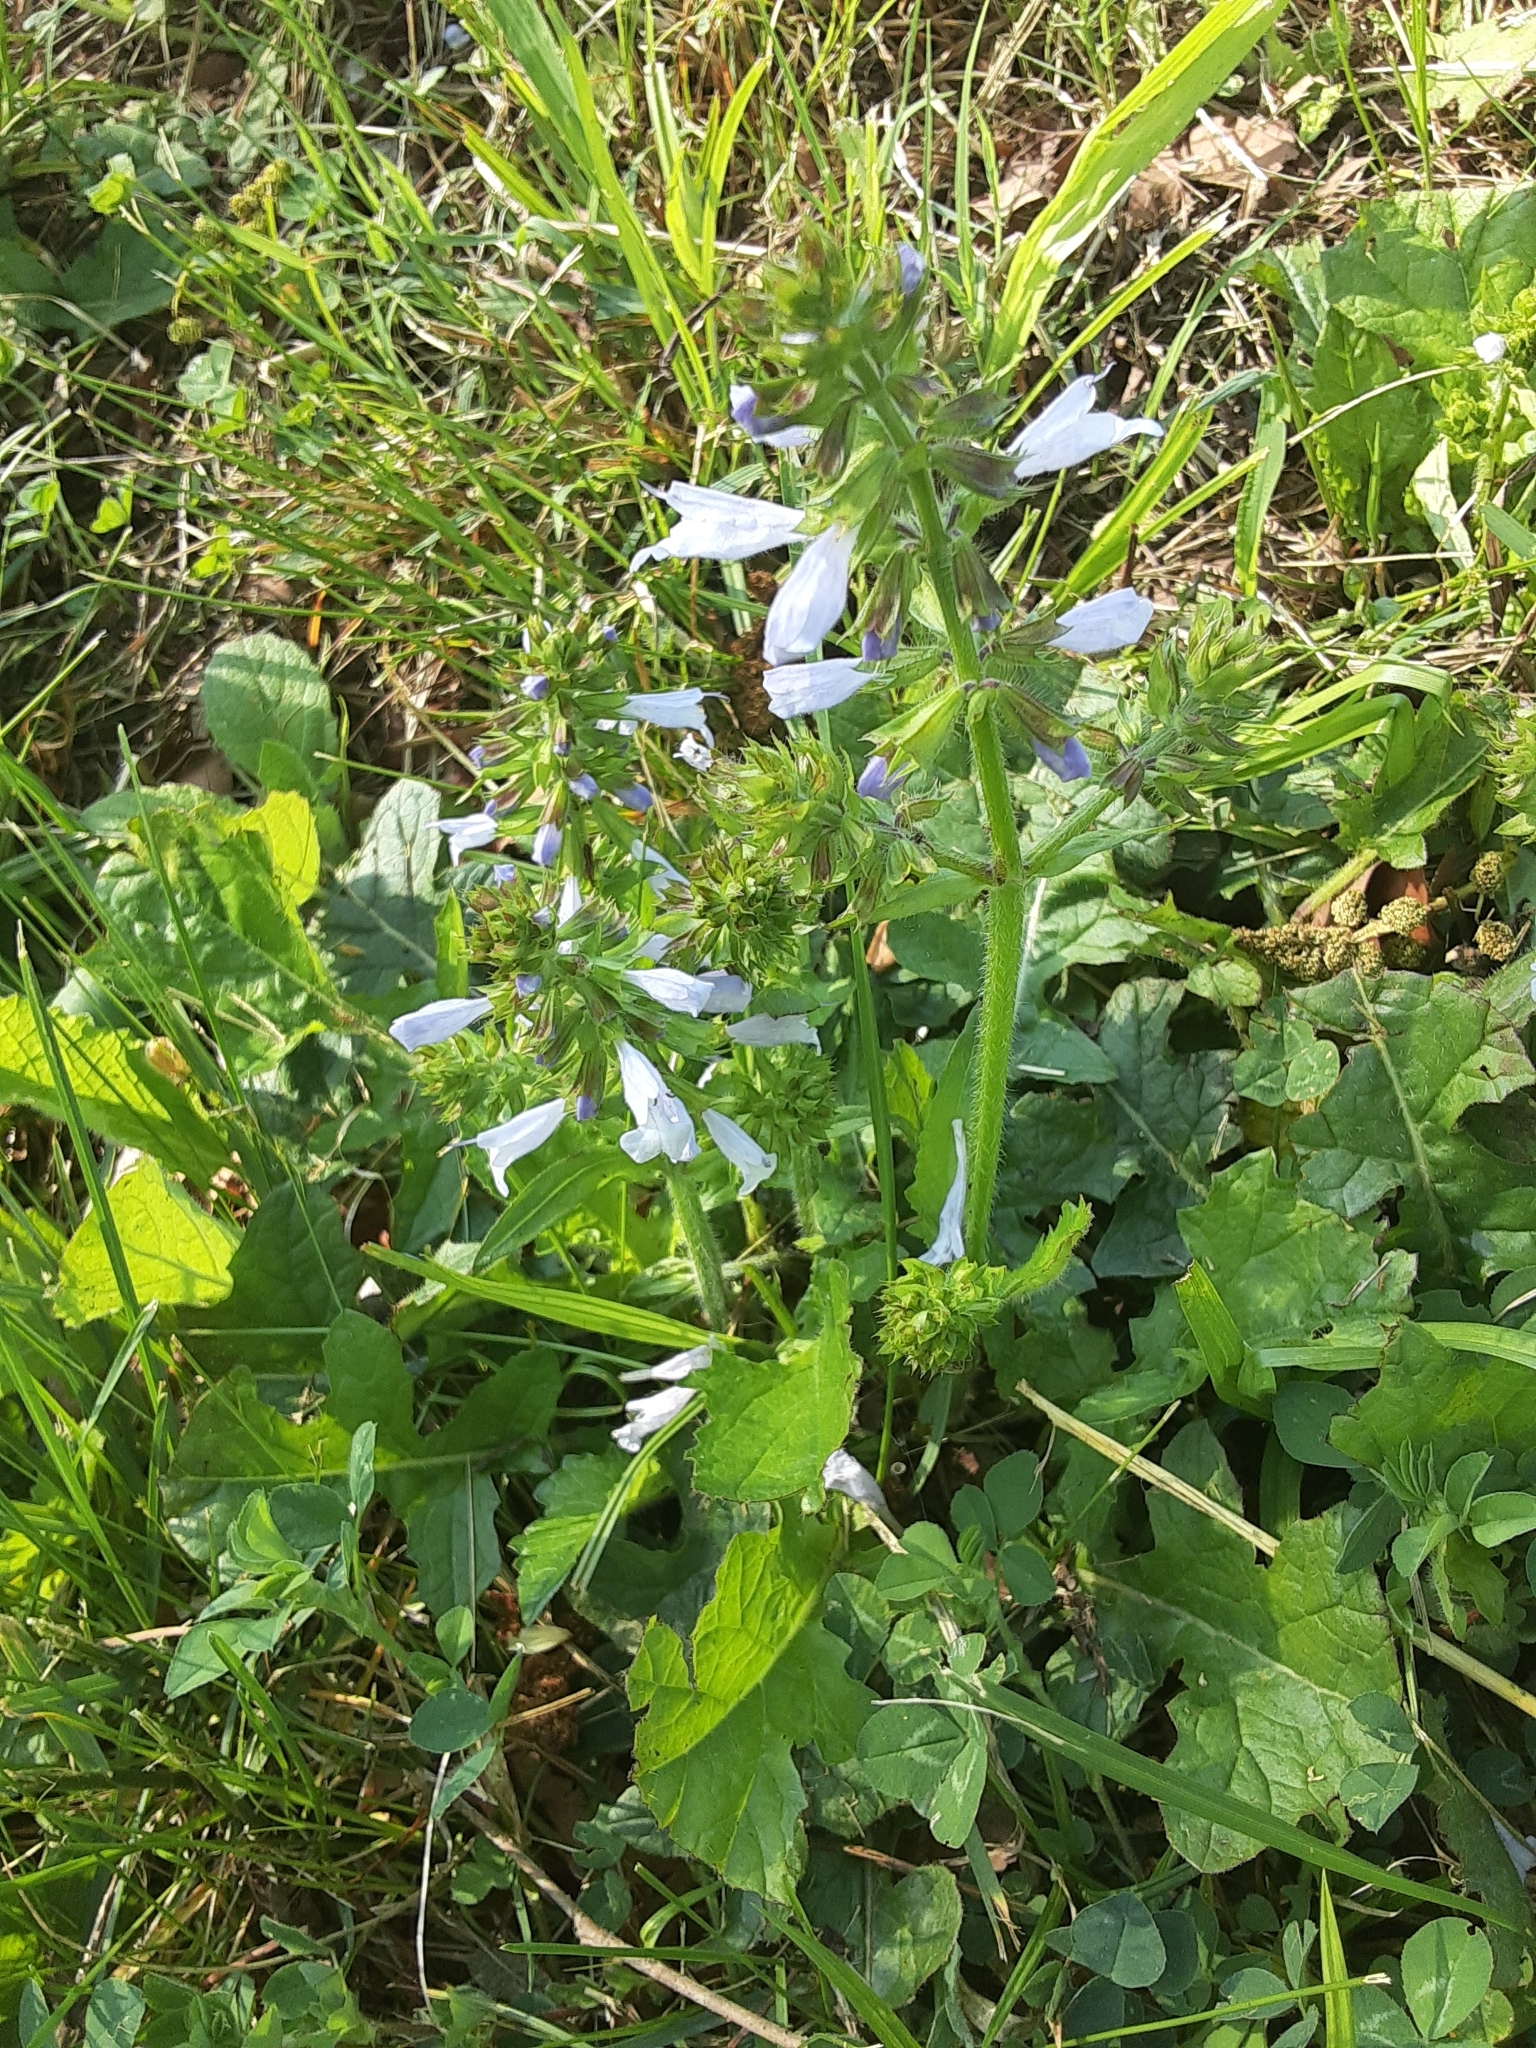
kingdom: Plantae
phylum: Tracheophyta
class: Magnoliopsida
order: Lamiales
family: Lamiaceae
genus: Salvia
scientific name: Salvia lyrata
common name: Cancerweed
